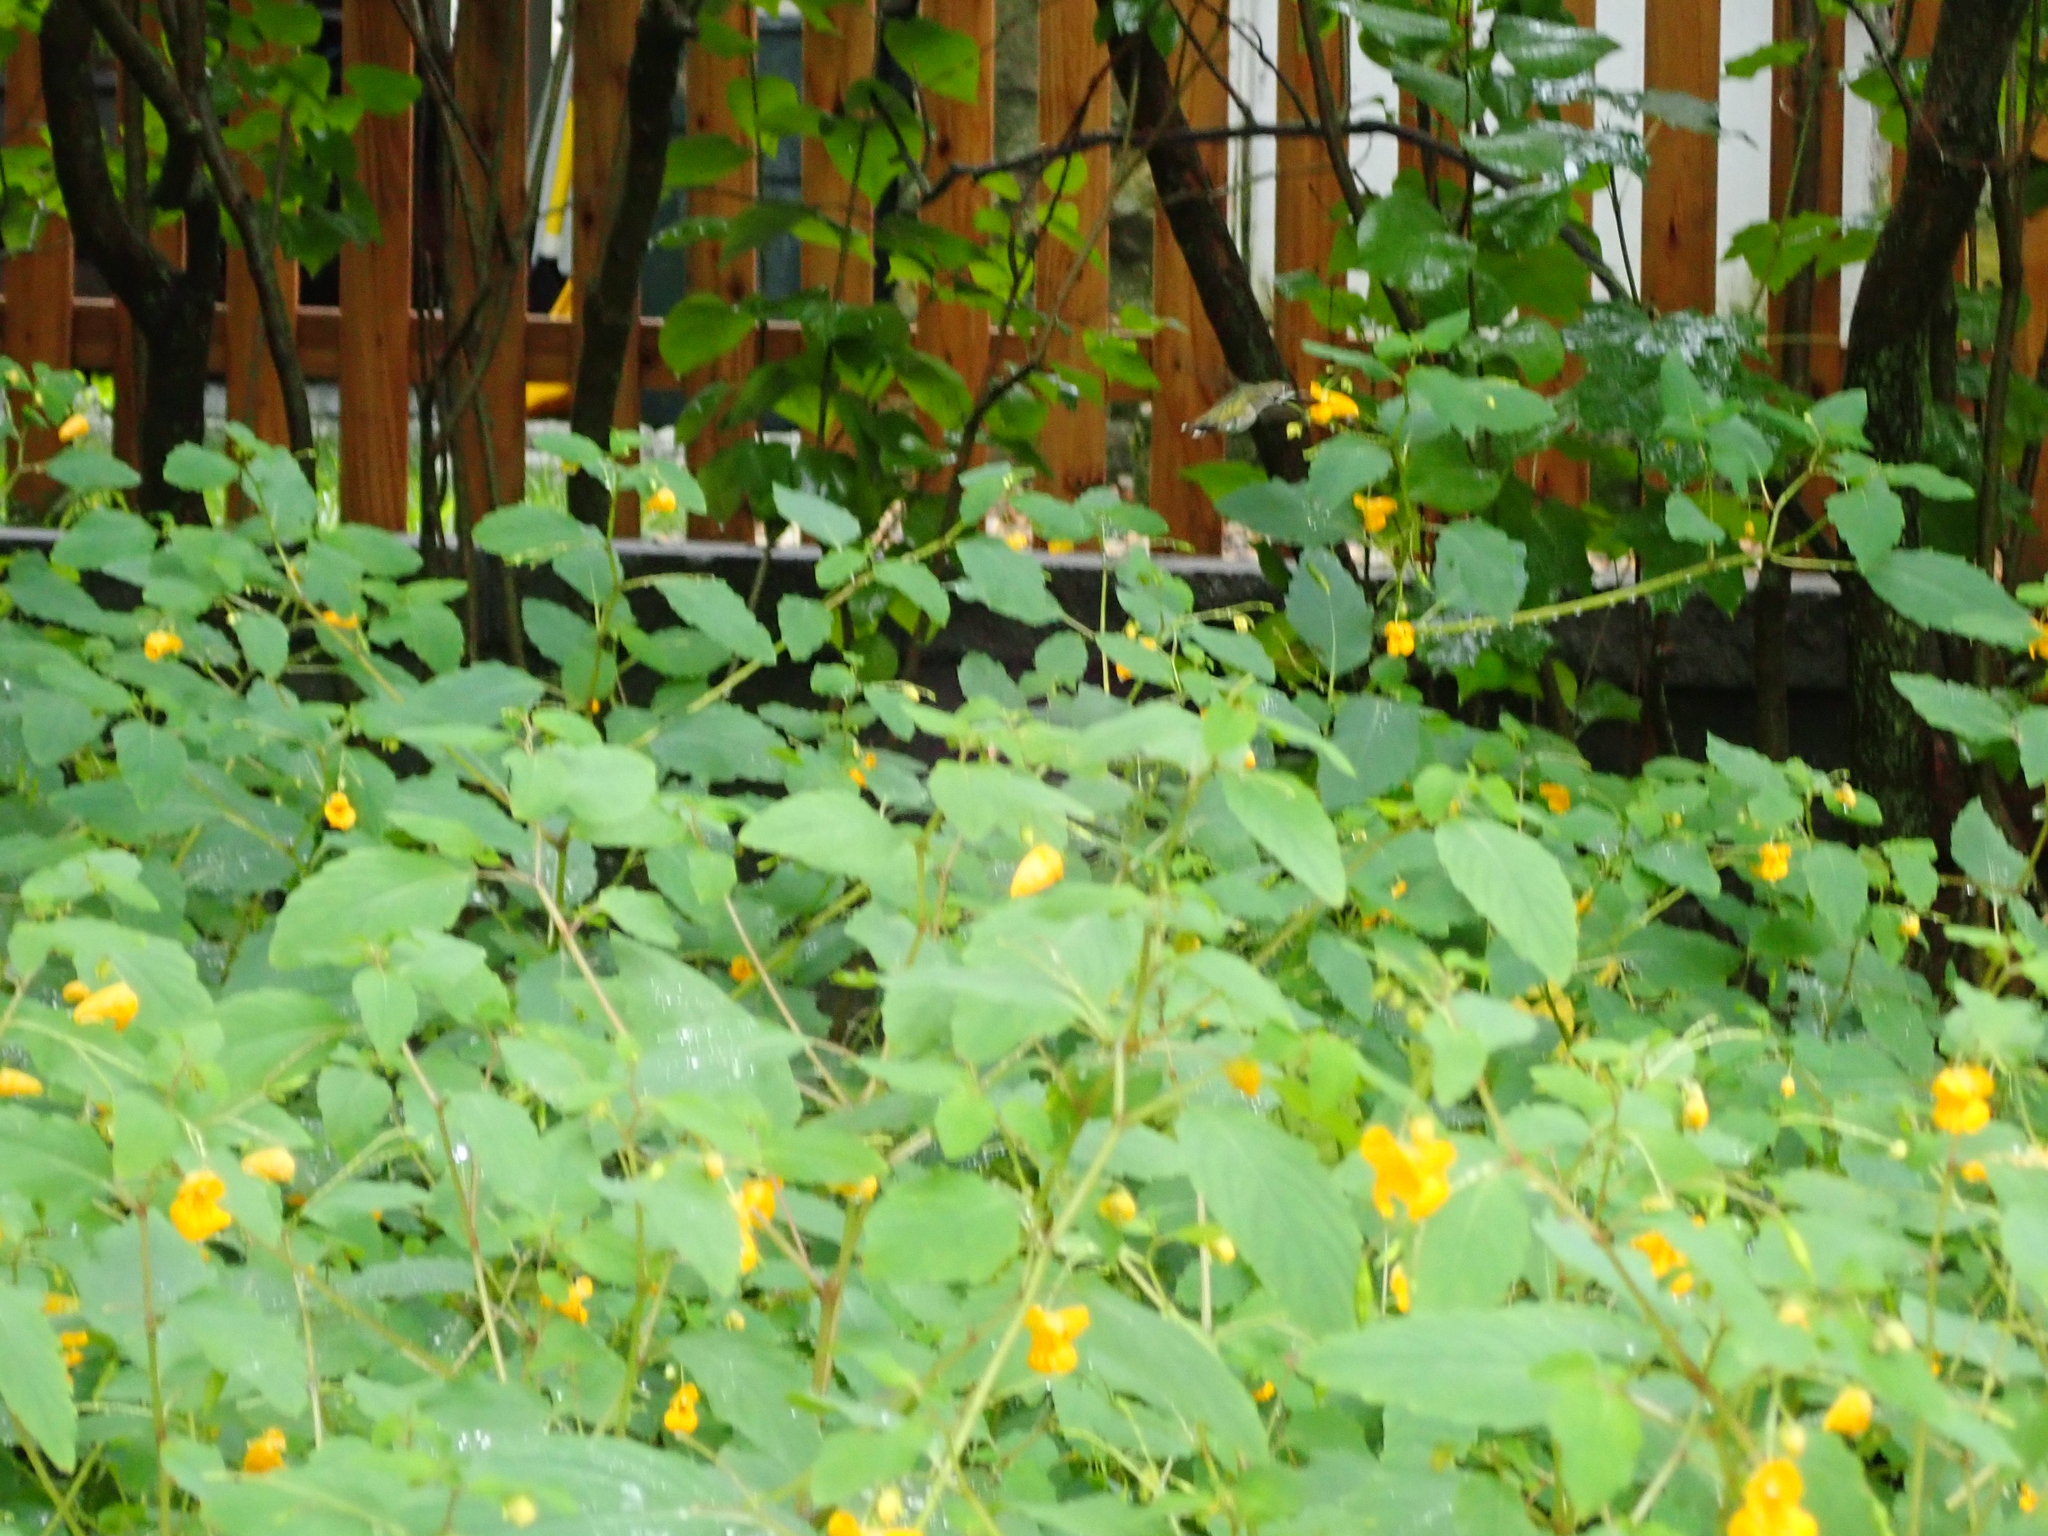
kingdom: Animalia
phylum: Chordata
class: Aves
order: Apodiformes
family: Trochilidae
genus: Archilochus
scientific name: Archilochus colubris
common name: Ruby-throated hummingbird
